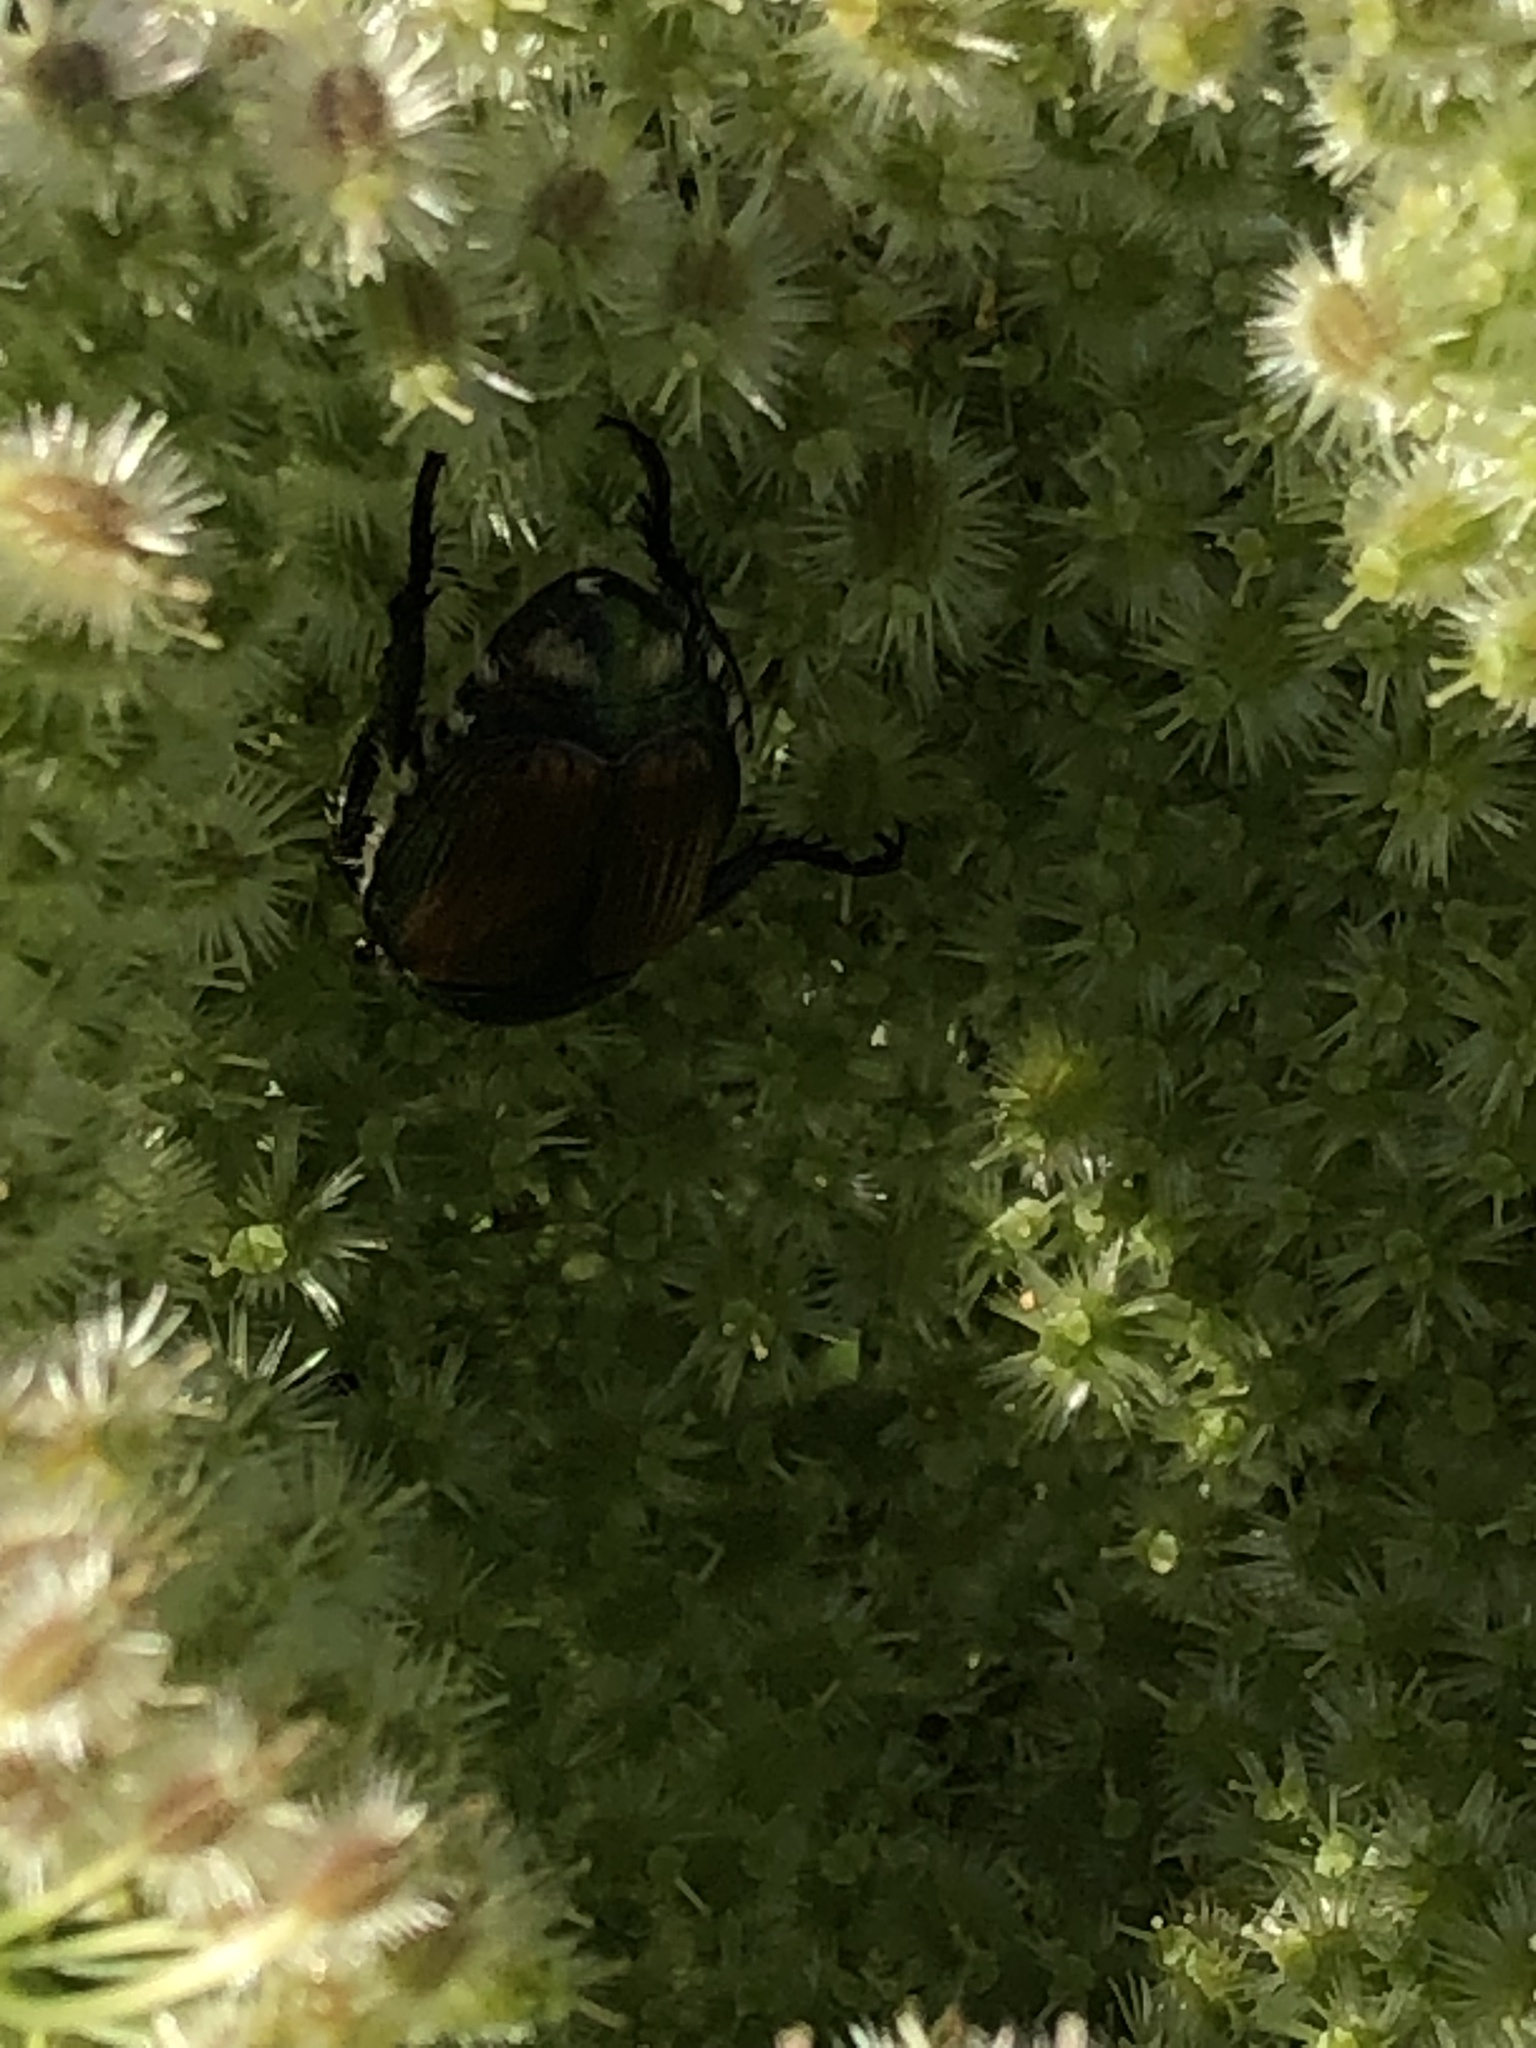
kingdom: Animalia
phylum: Arthropoda
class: Insecta
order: Coleoptera
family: Scarabaeidae
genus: Popillia
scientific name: Popillia japonica
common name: Japanese beetle
